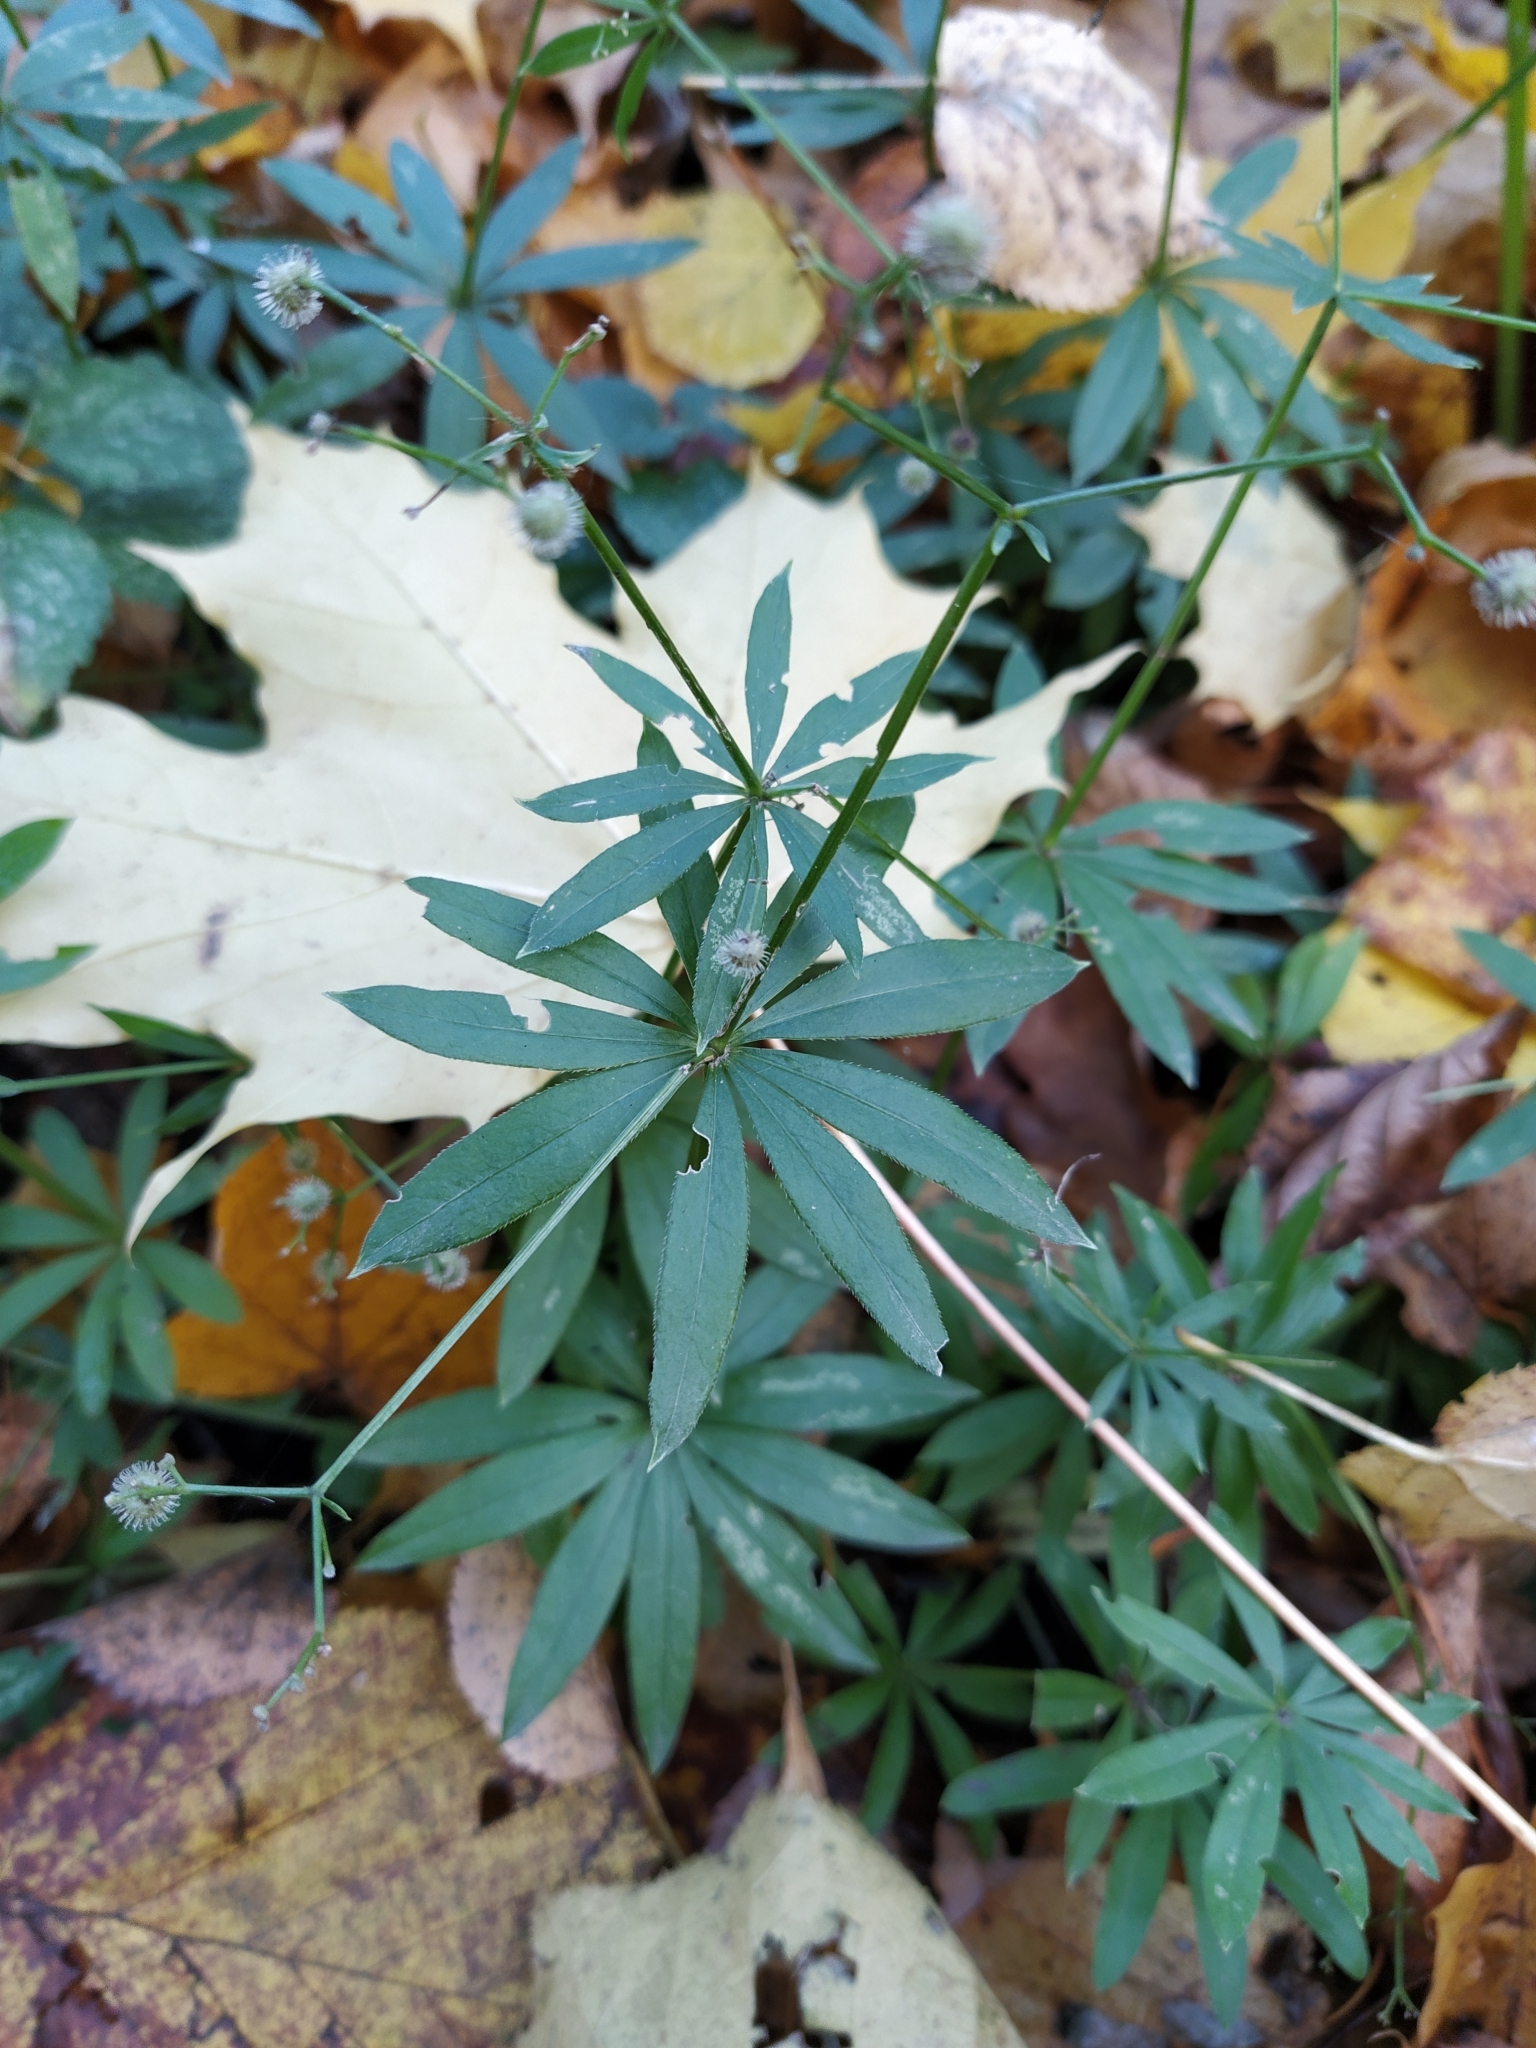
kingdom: Plantae
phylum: Tracheophyta
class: Magnoliopsida
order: Gentianales
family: Rubiaceae
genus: Galium
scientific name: Galium odoratum
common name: Sweet woodruff
